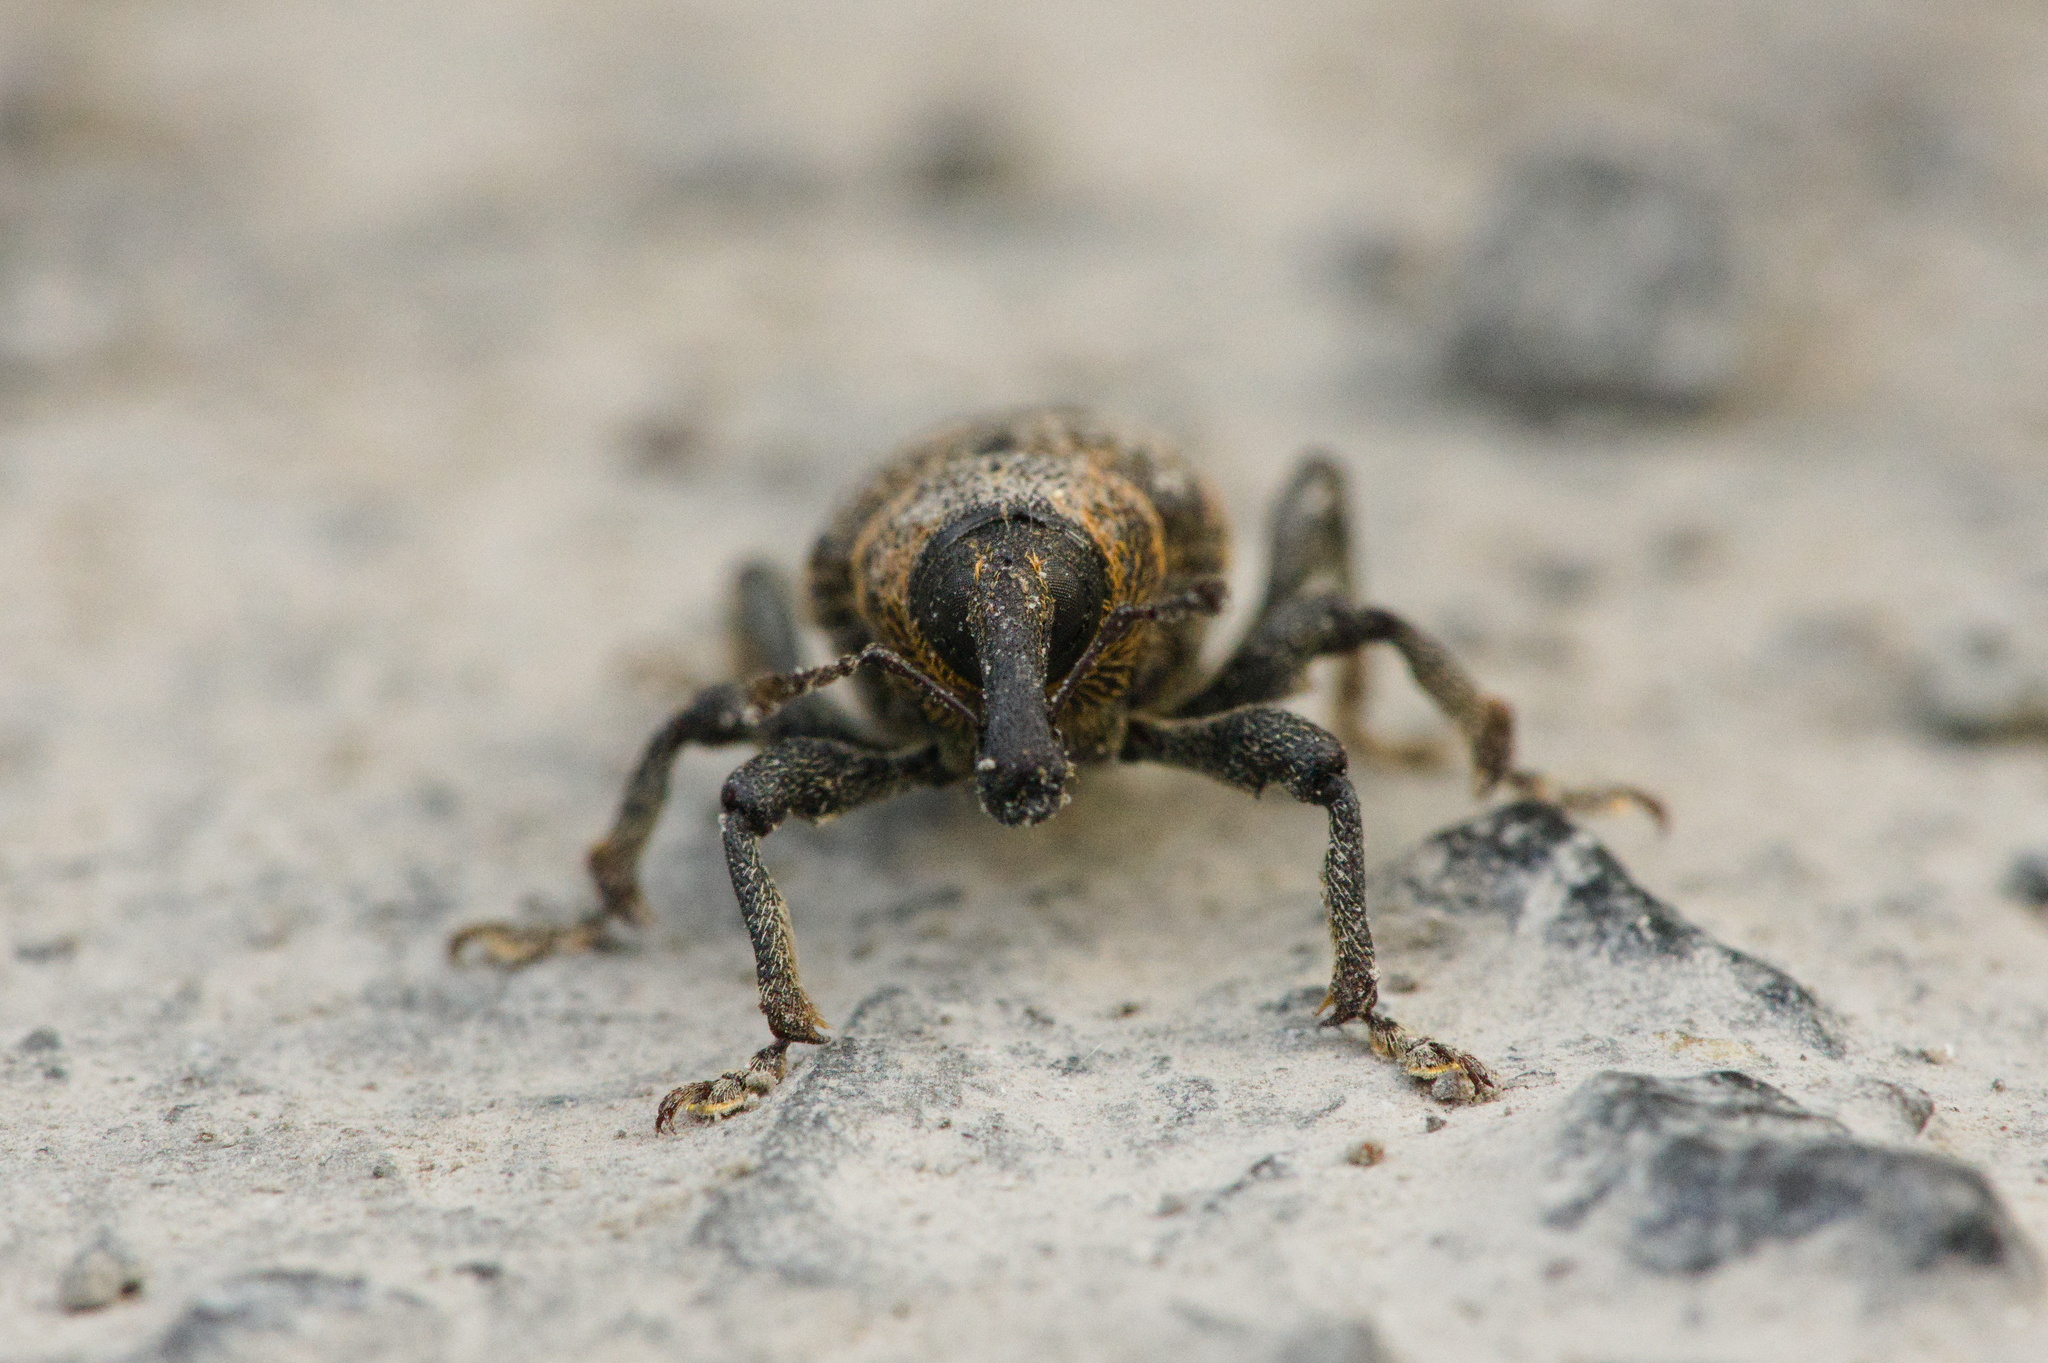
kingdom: Animalia
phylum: Arthropoda
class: Insecta
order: Coleoptera
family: Curculionidae
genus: Hylobius
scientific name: Hylobius abietis
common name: Large pine weevil
